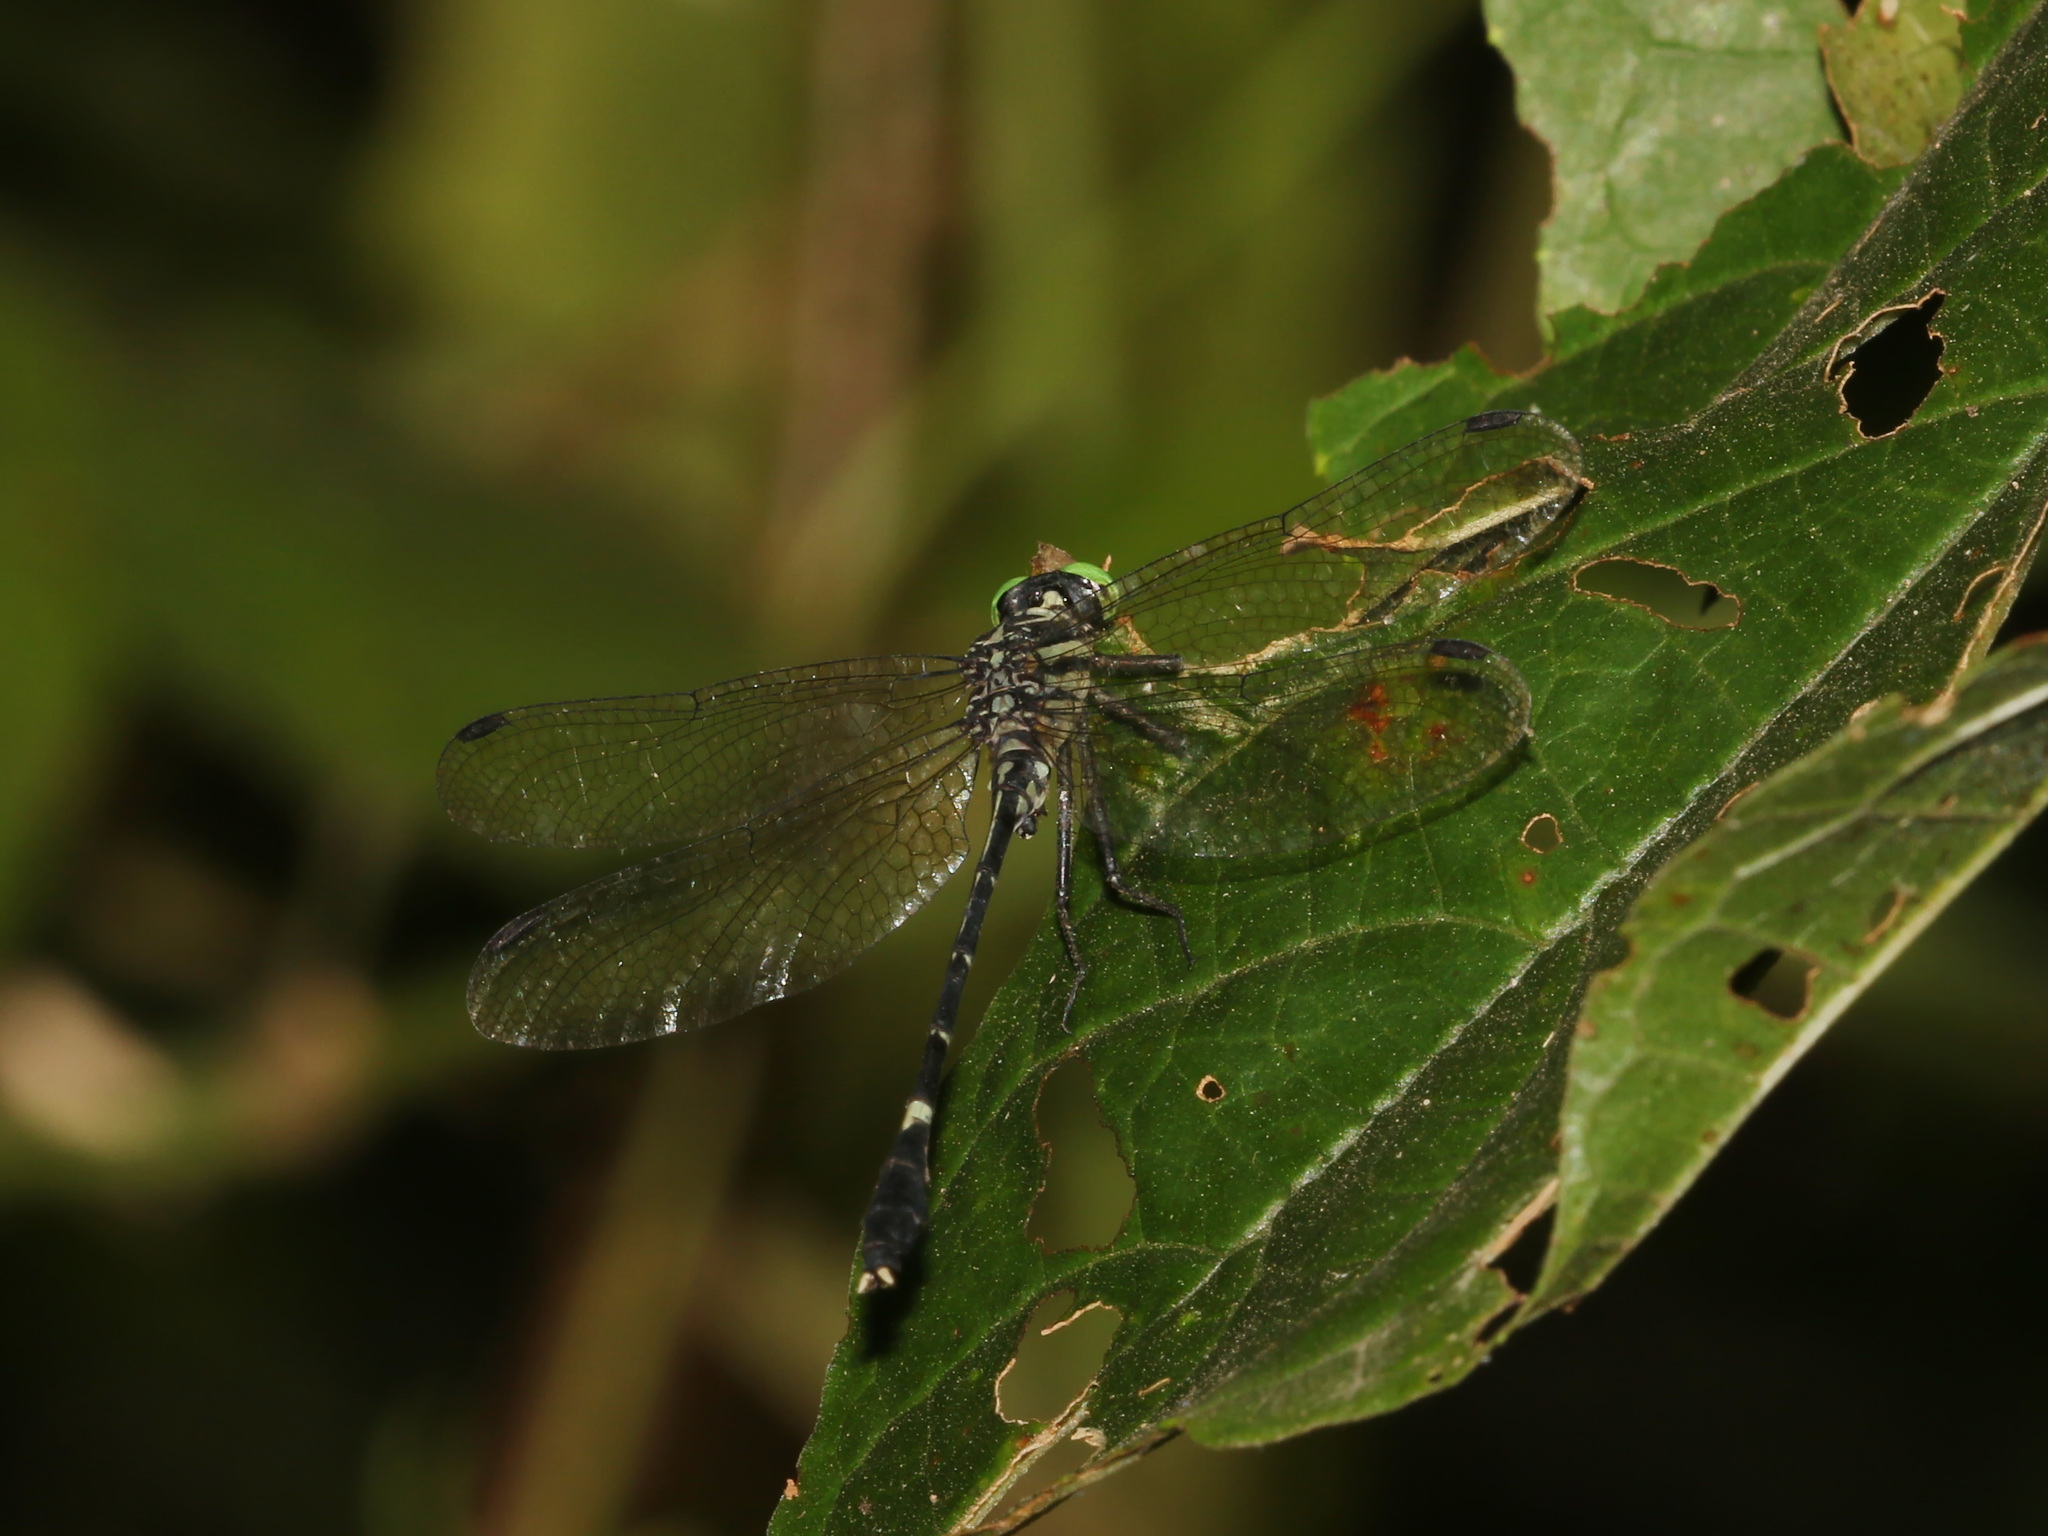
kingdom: Animalia
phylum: Arthropoda
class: Insecta
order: Odonata
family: Gomphidae
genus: Euthygomphus
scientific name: Euthygomphus yunnanensis
